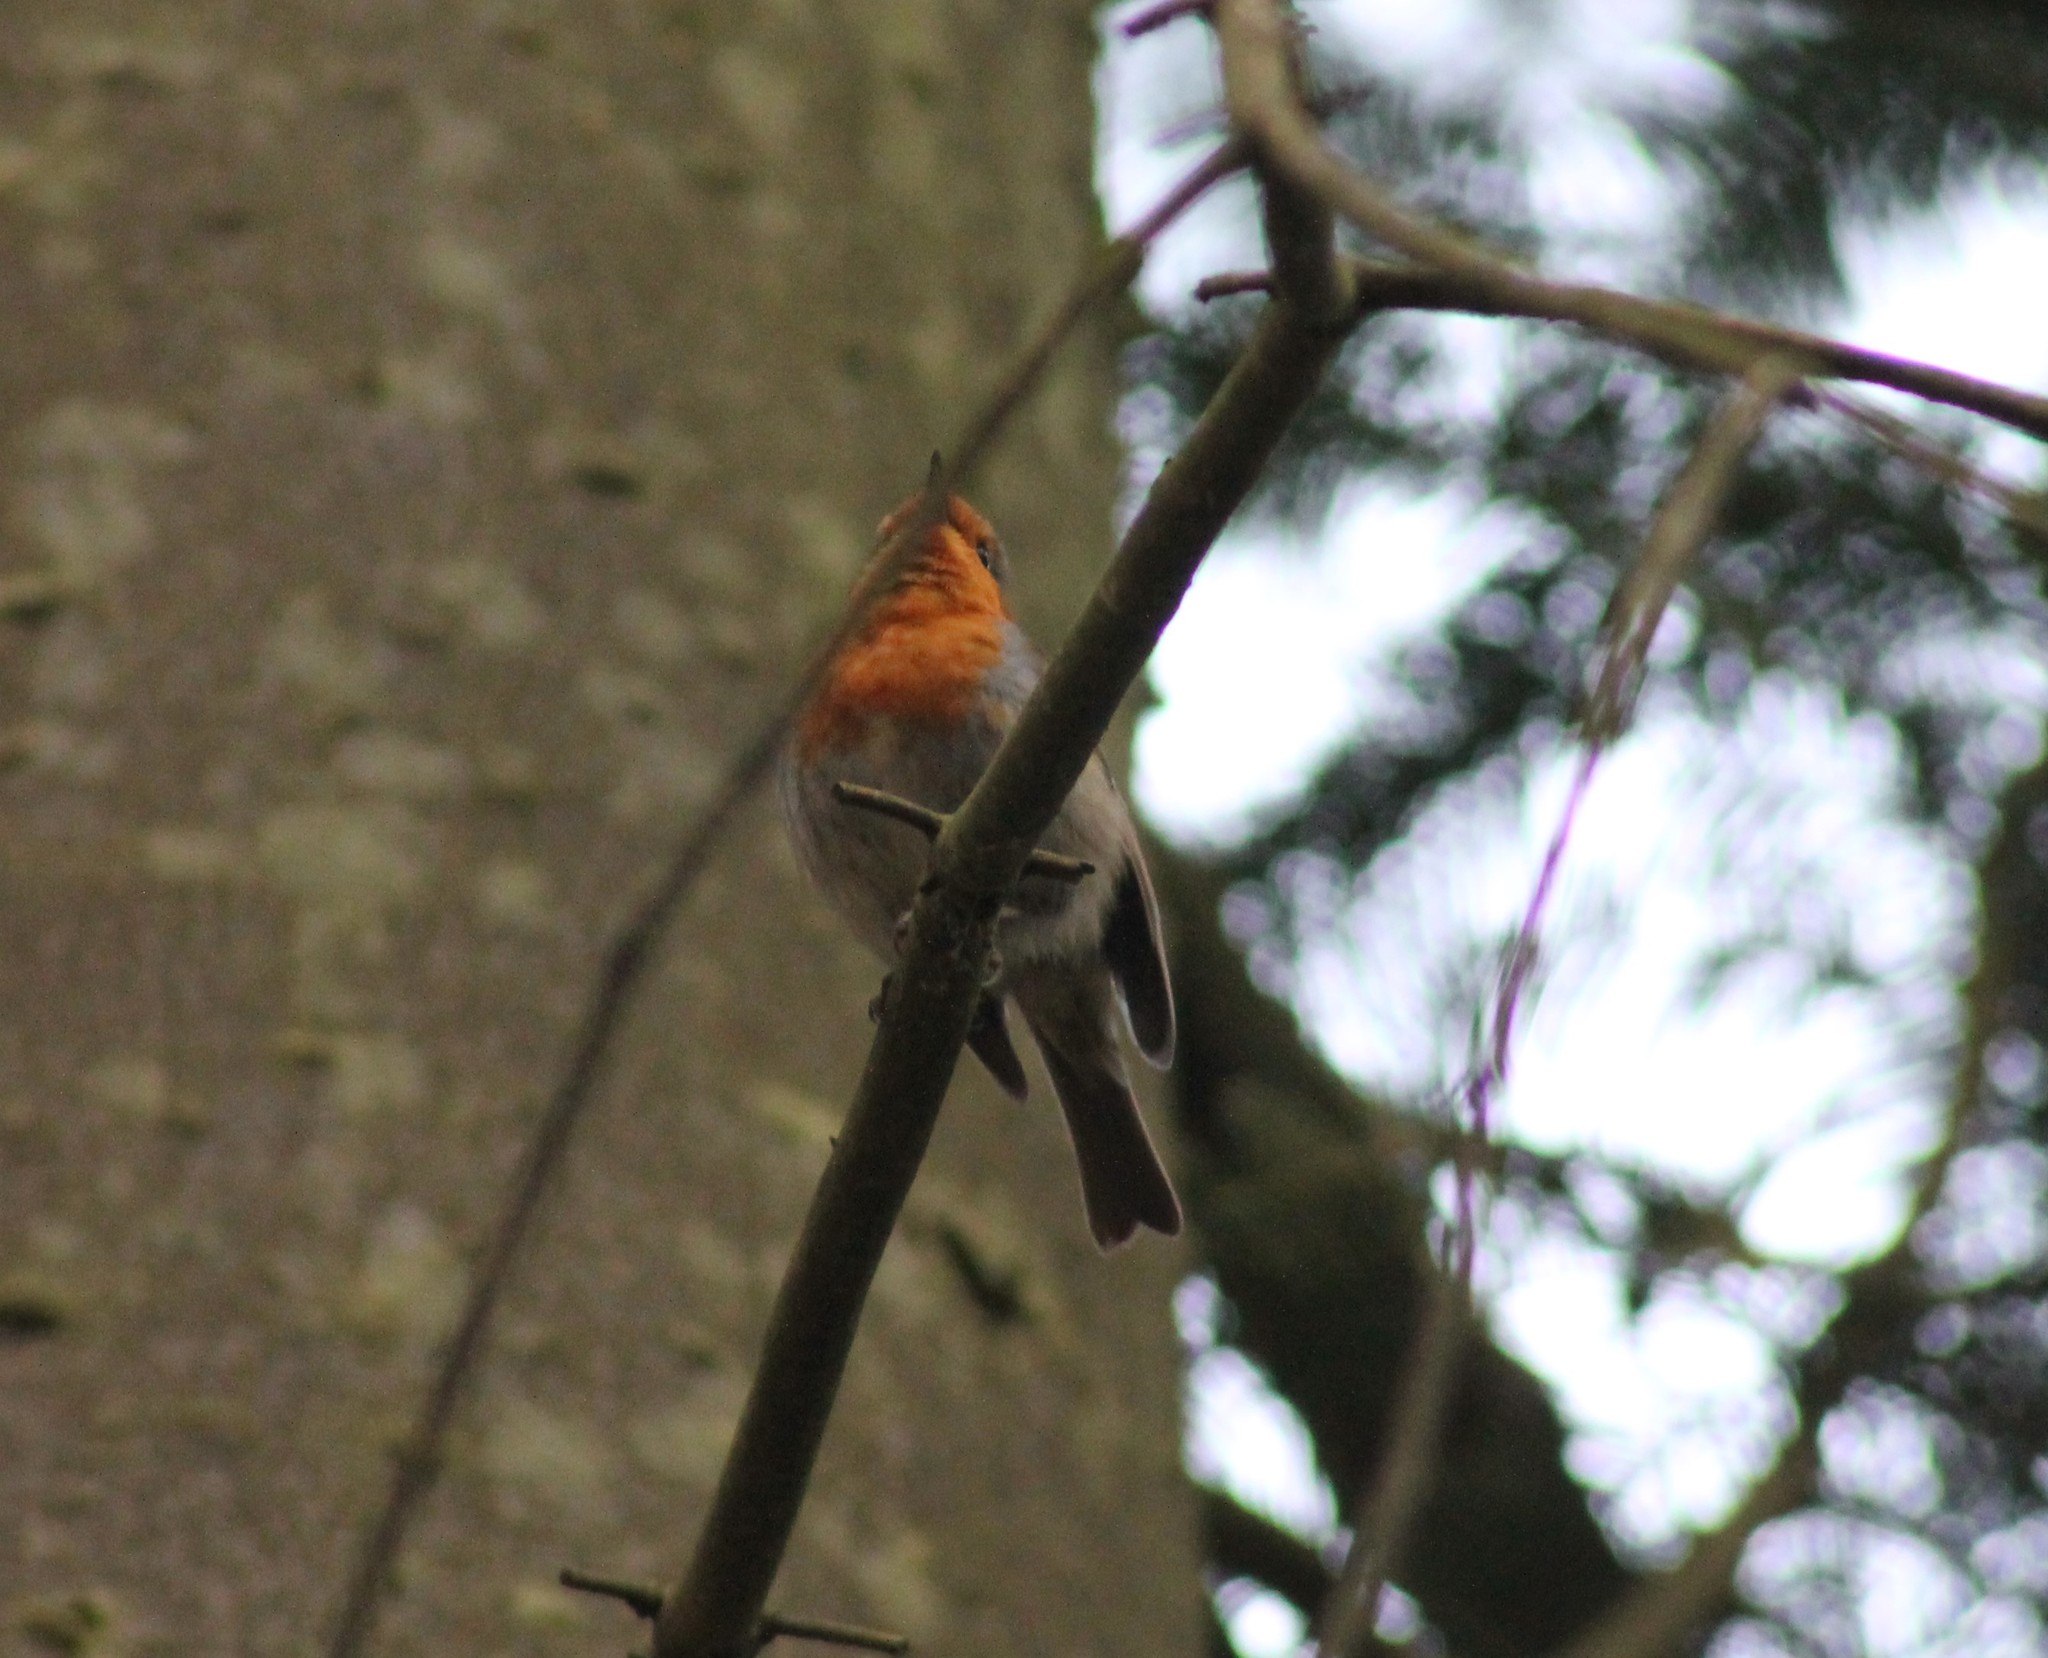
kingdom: Animalia
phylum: Chordata
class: Aves
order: Passeriformes
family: Muscicapidae
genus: Erithacus
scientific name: Erithacus rubecula
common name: European robin
